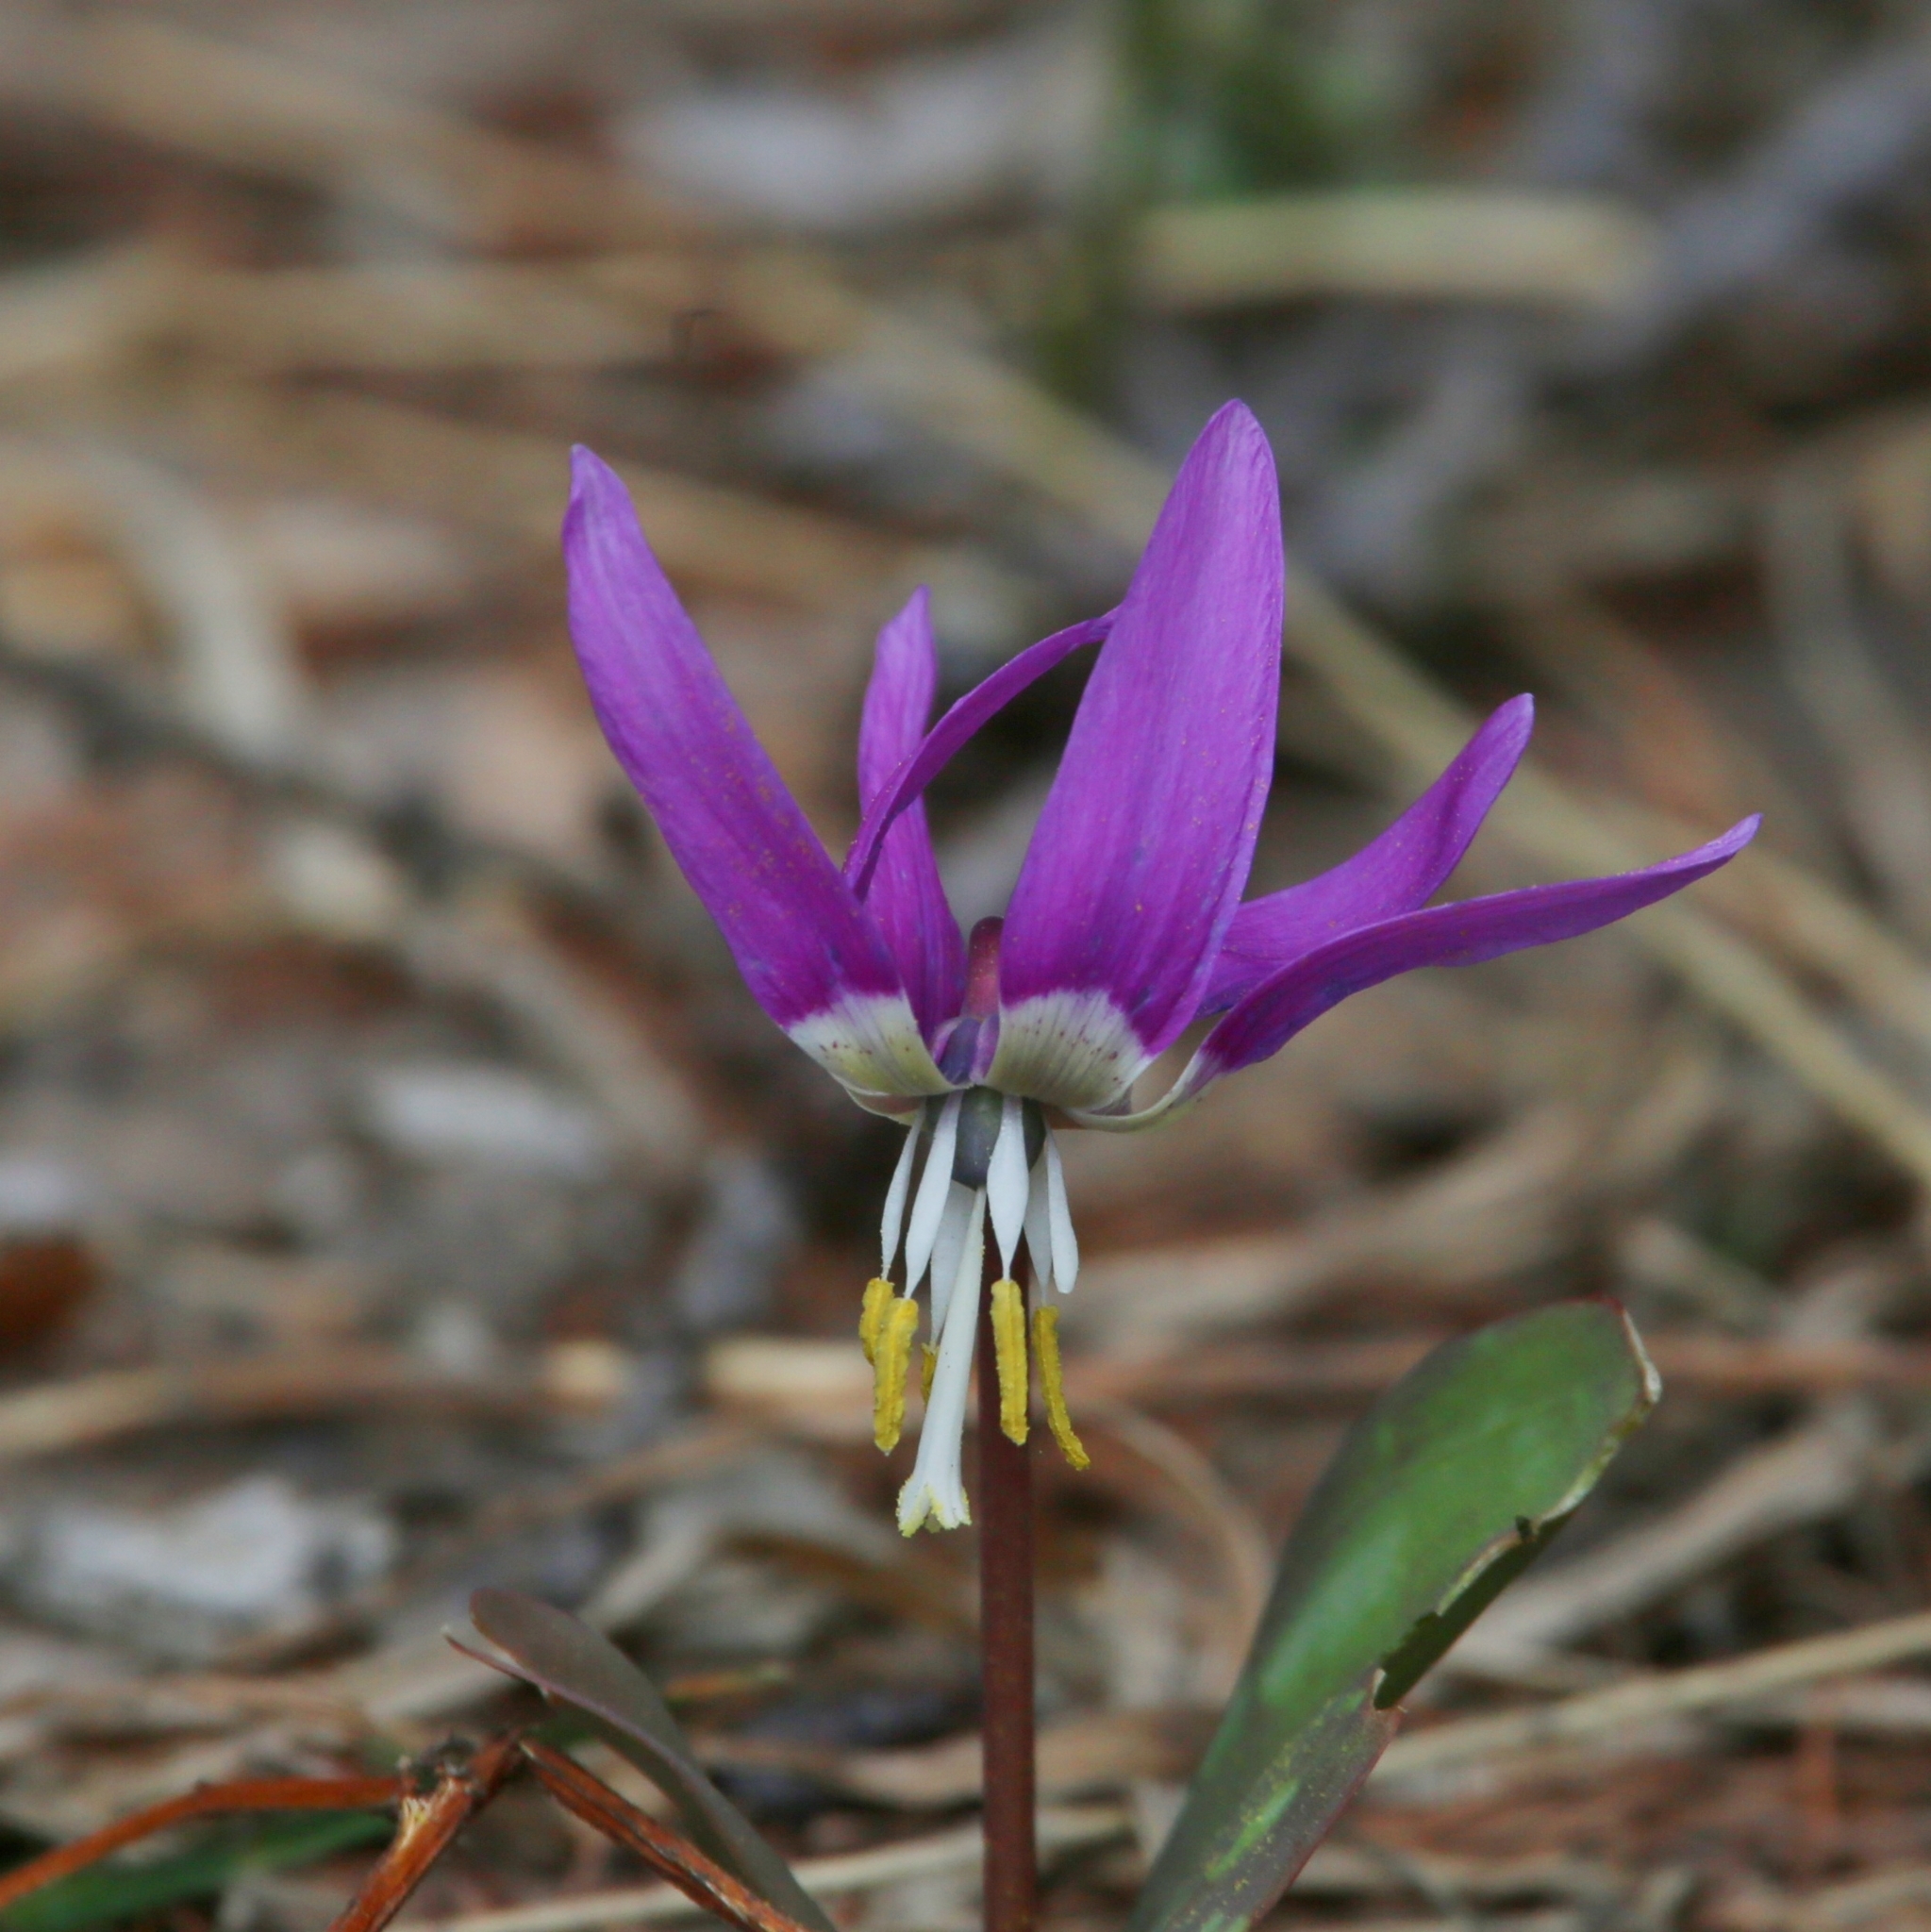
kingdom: Plantae
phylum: Tracheophyta
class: Liliopsida
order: Liliales
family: Liliaceae
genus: Erythronium
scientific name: Erythronium sibiricum
